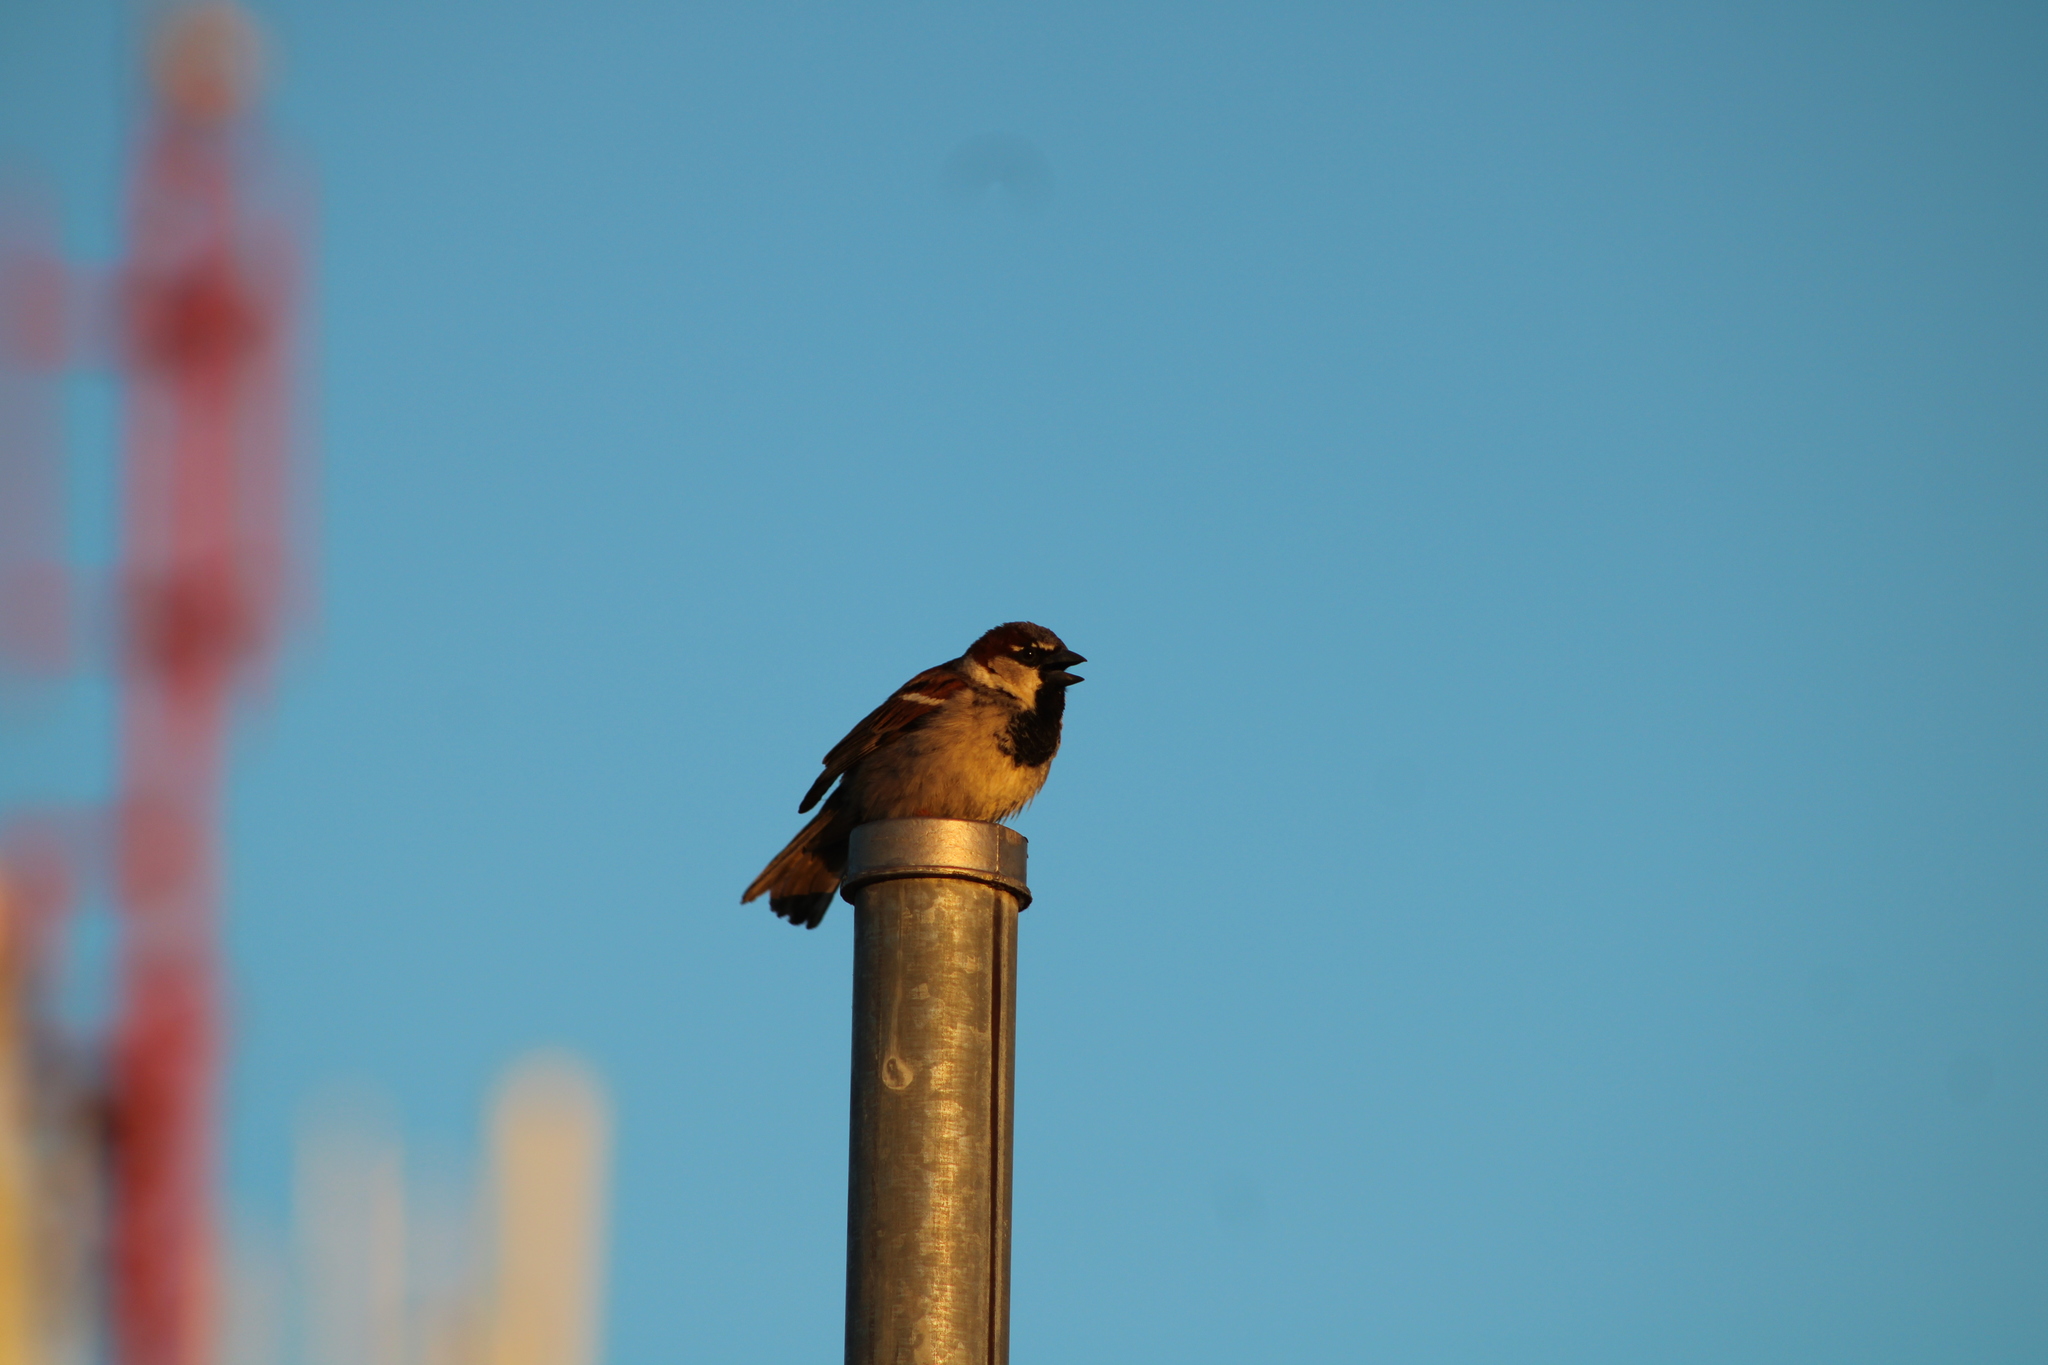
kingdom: Animalia
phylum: Chordata
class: Aves
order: Passeriformes
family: Passeridae
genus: Passer
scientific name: Passer domesticus
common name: House sparrow
